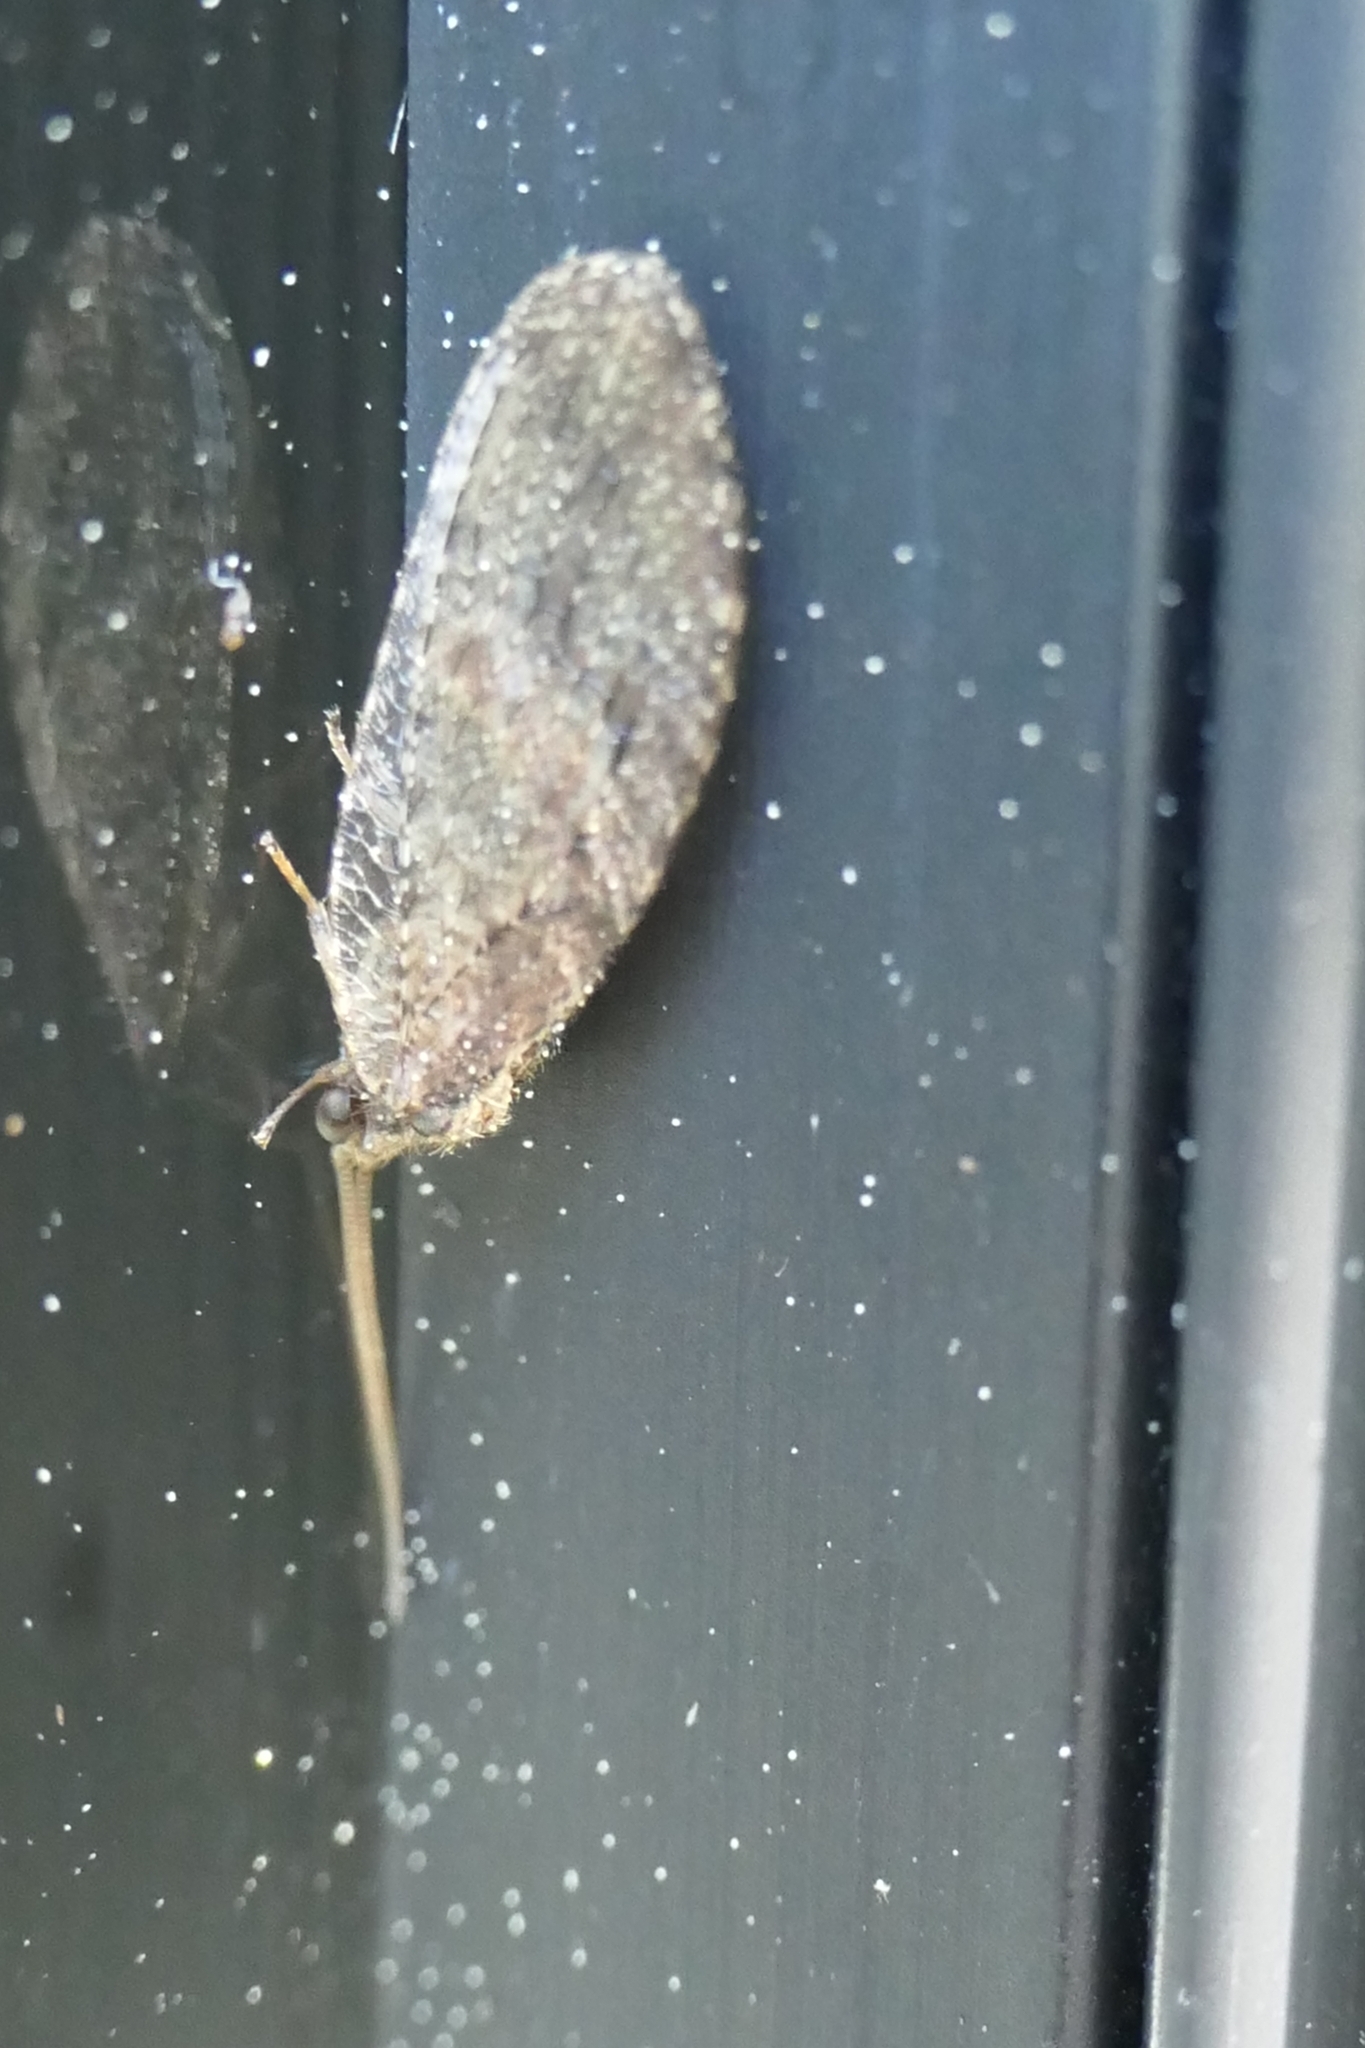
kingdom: Animalia
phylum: Arthropoda
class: Insecta
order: Neuroptera
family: Hemerobiidae
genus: Wesmaelius
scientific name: Wesmaelius subnebulosus
